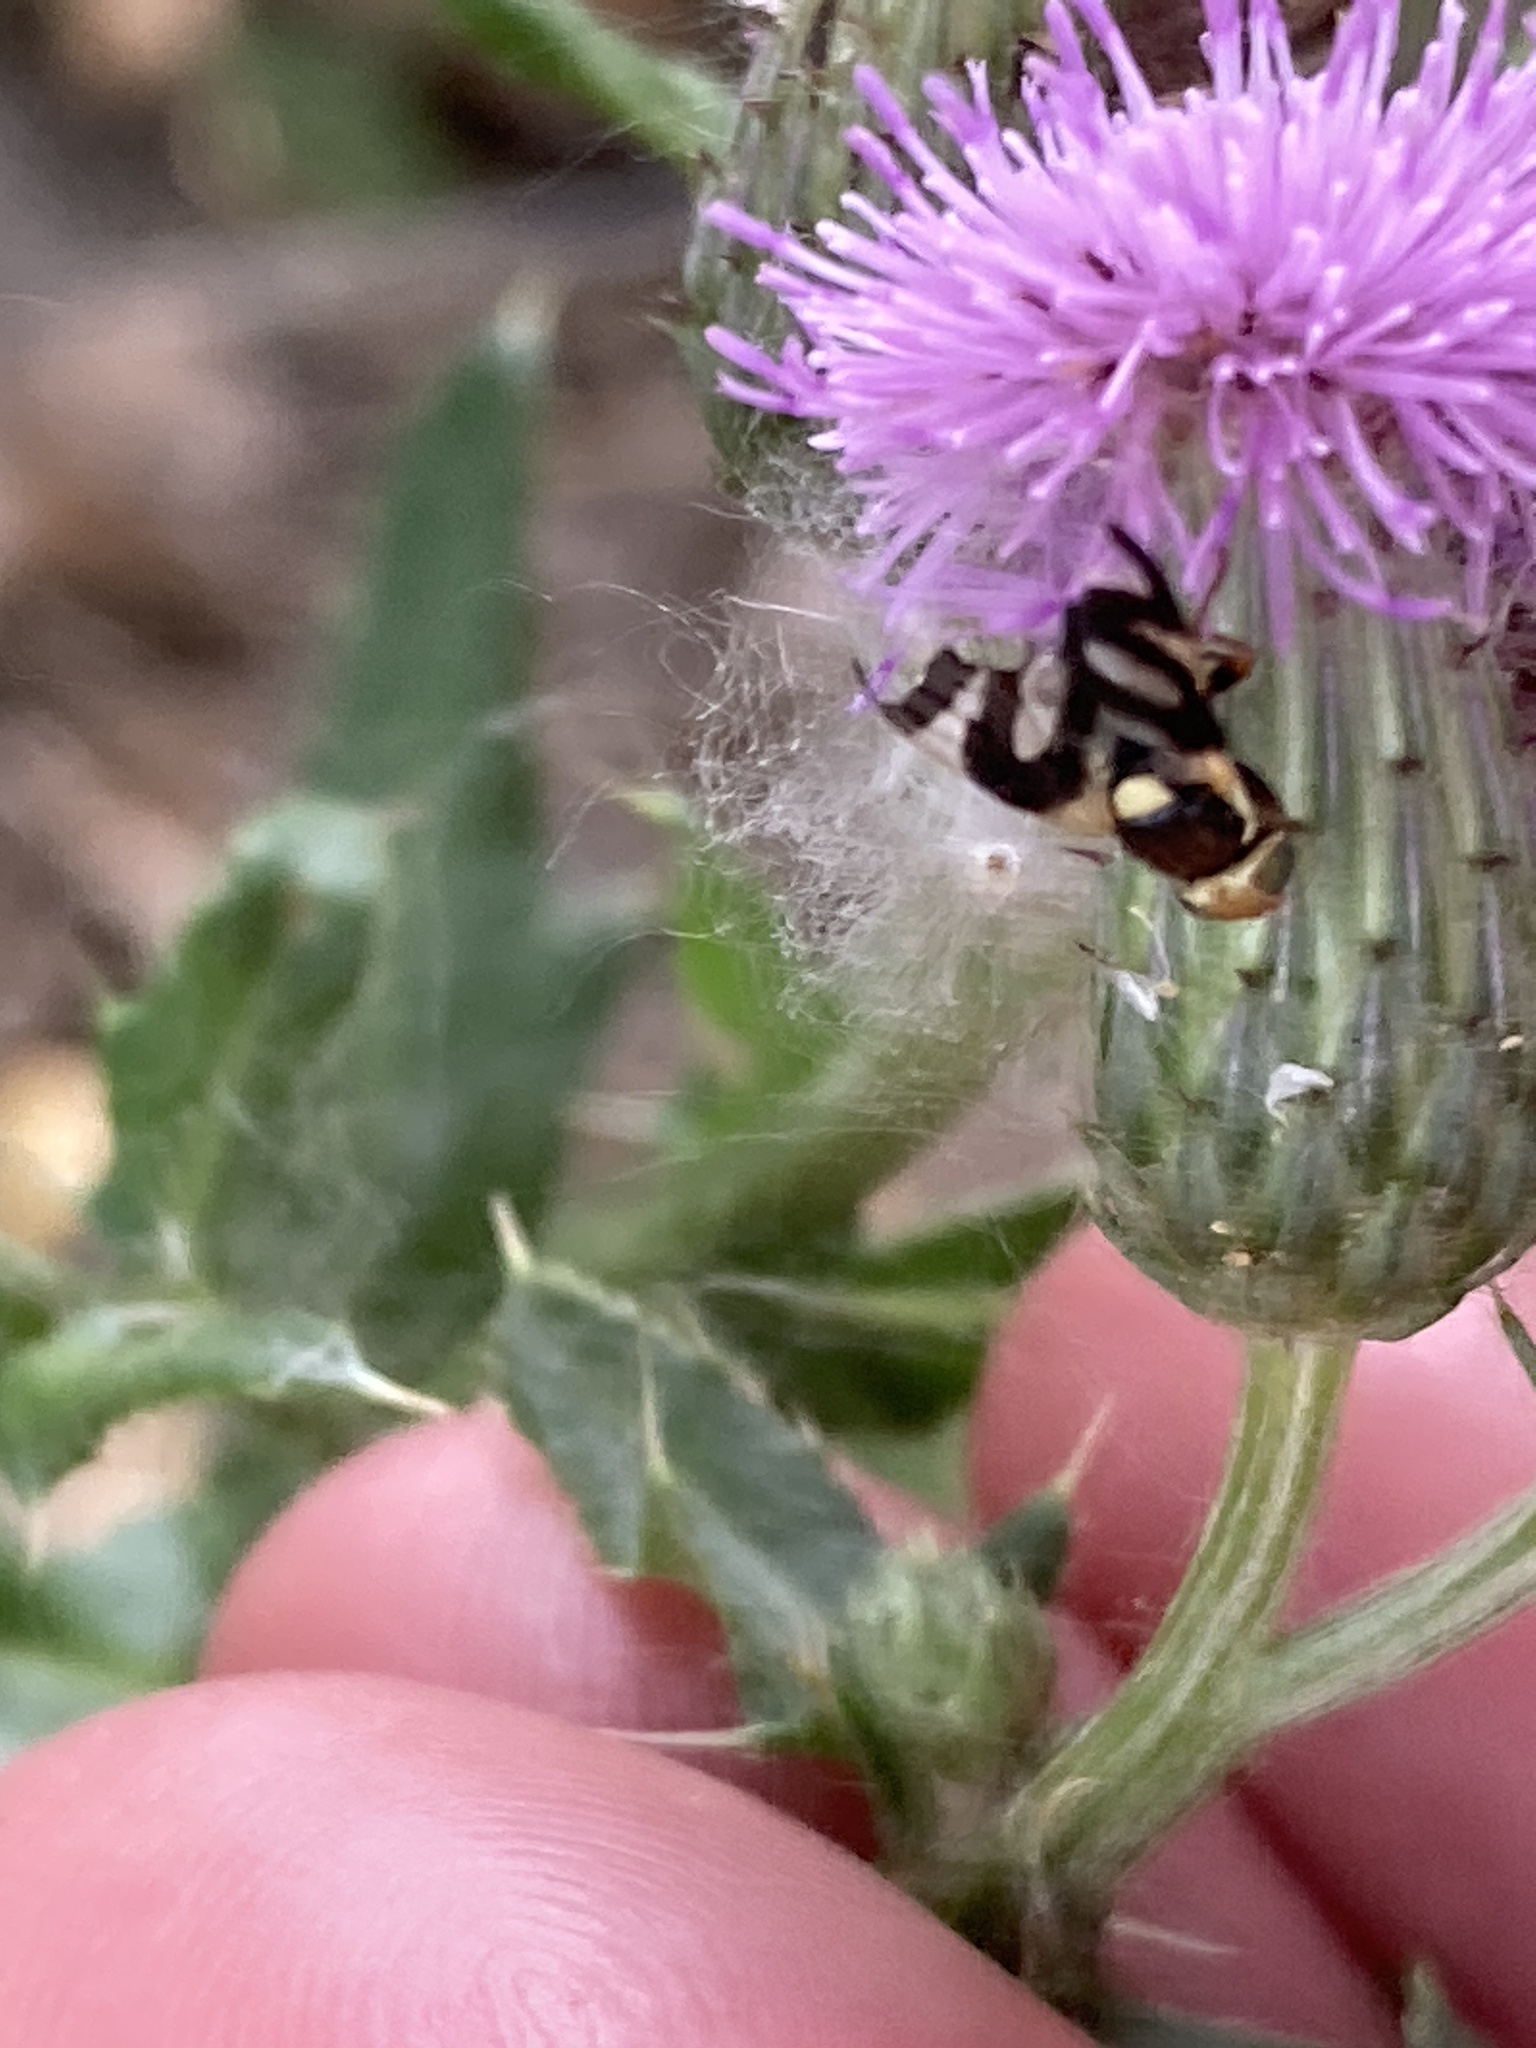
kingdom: Animalia
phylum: Arthropoda
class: Insecta
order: Diptera
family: Tephritidae
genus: Urophora
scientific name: Urophora cardui
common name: Fruit fly
